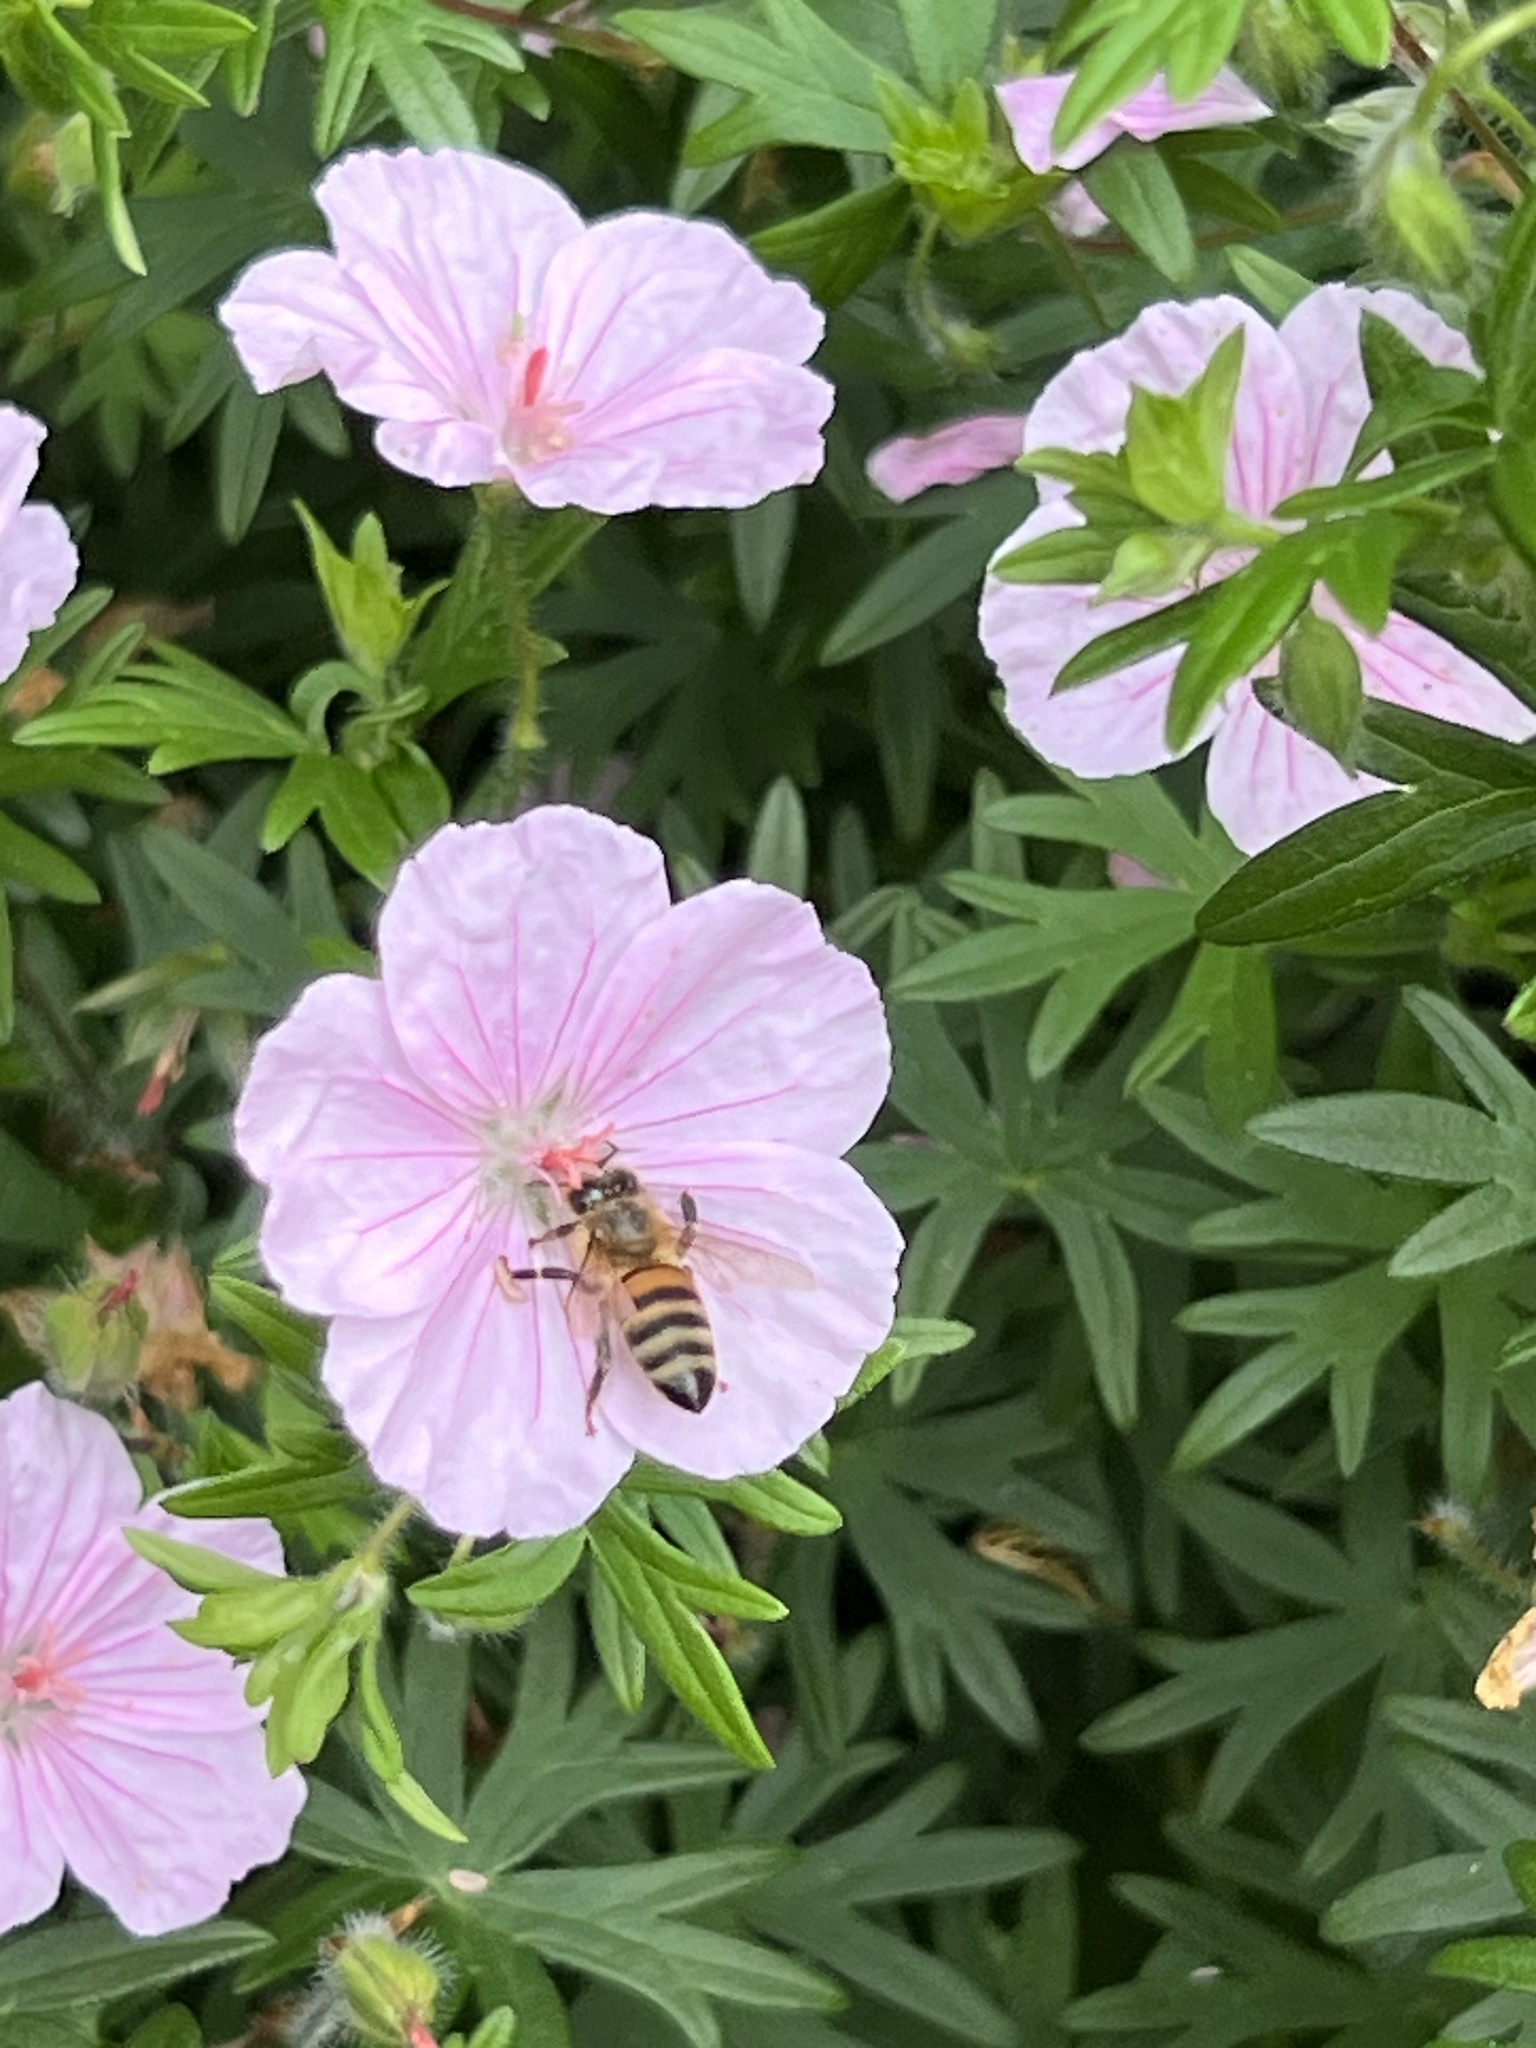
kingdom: Animalia
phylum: Arthropoda
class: Insecta
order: Hymenoptera
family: Apidae
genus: Apis
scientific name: Apis mellifera
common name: Honey bee
